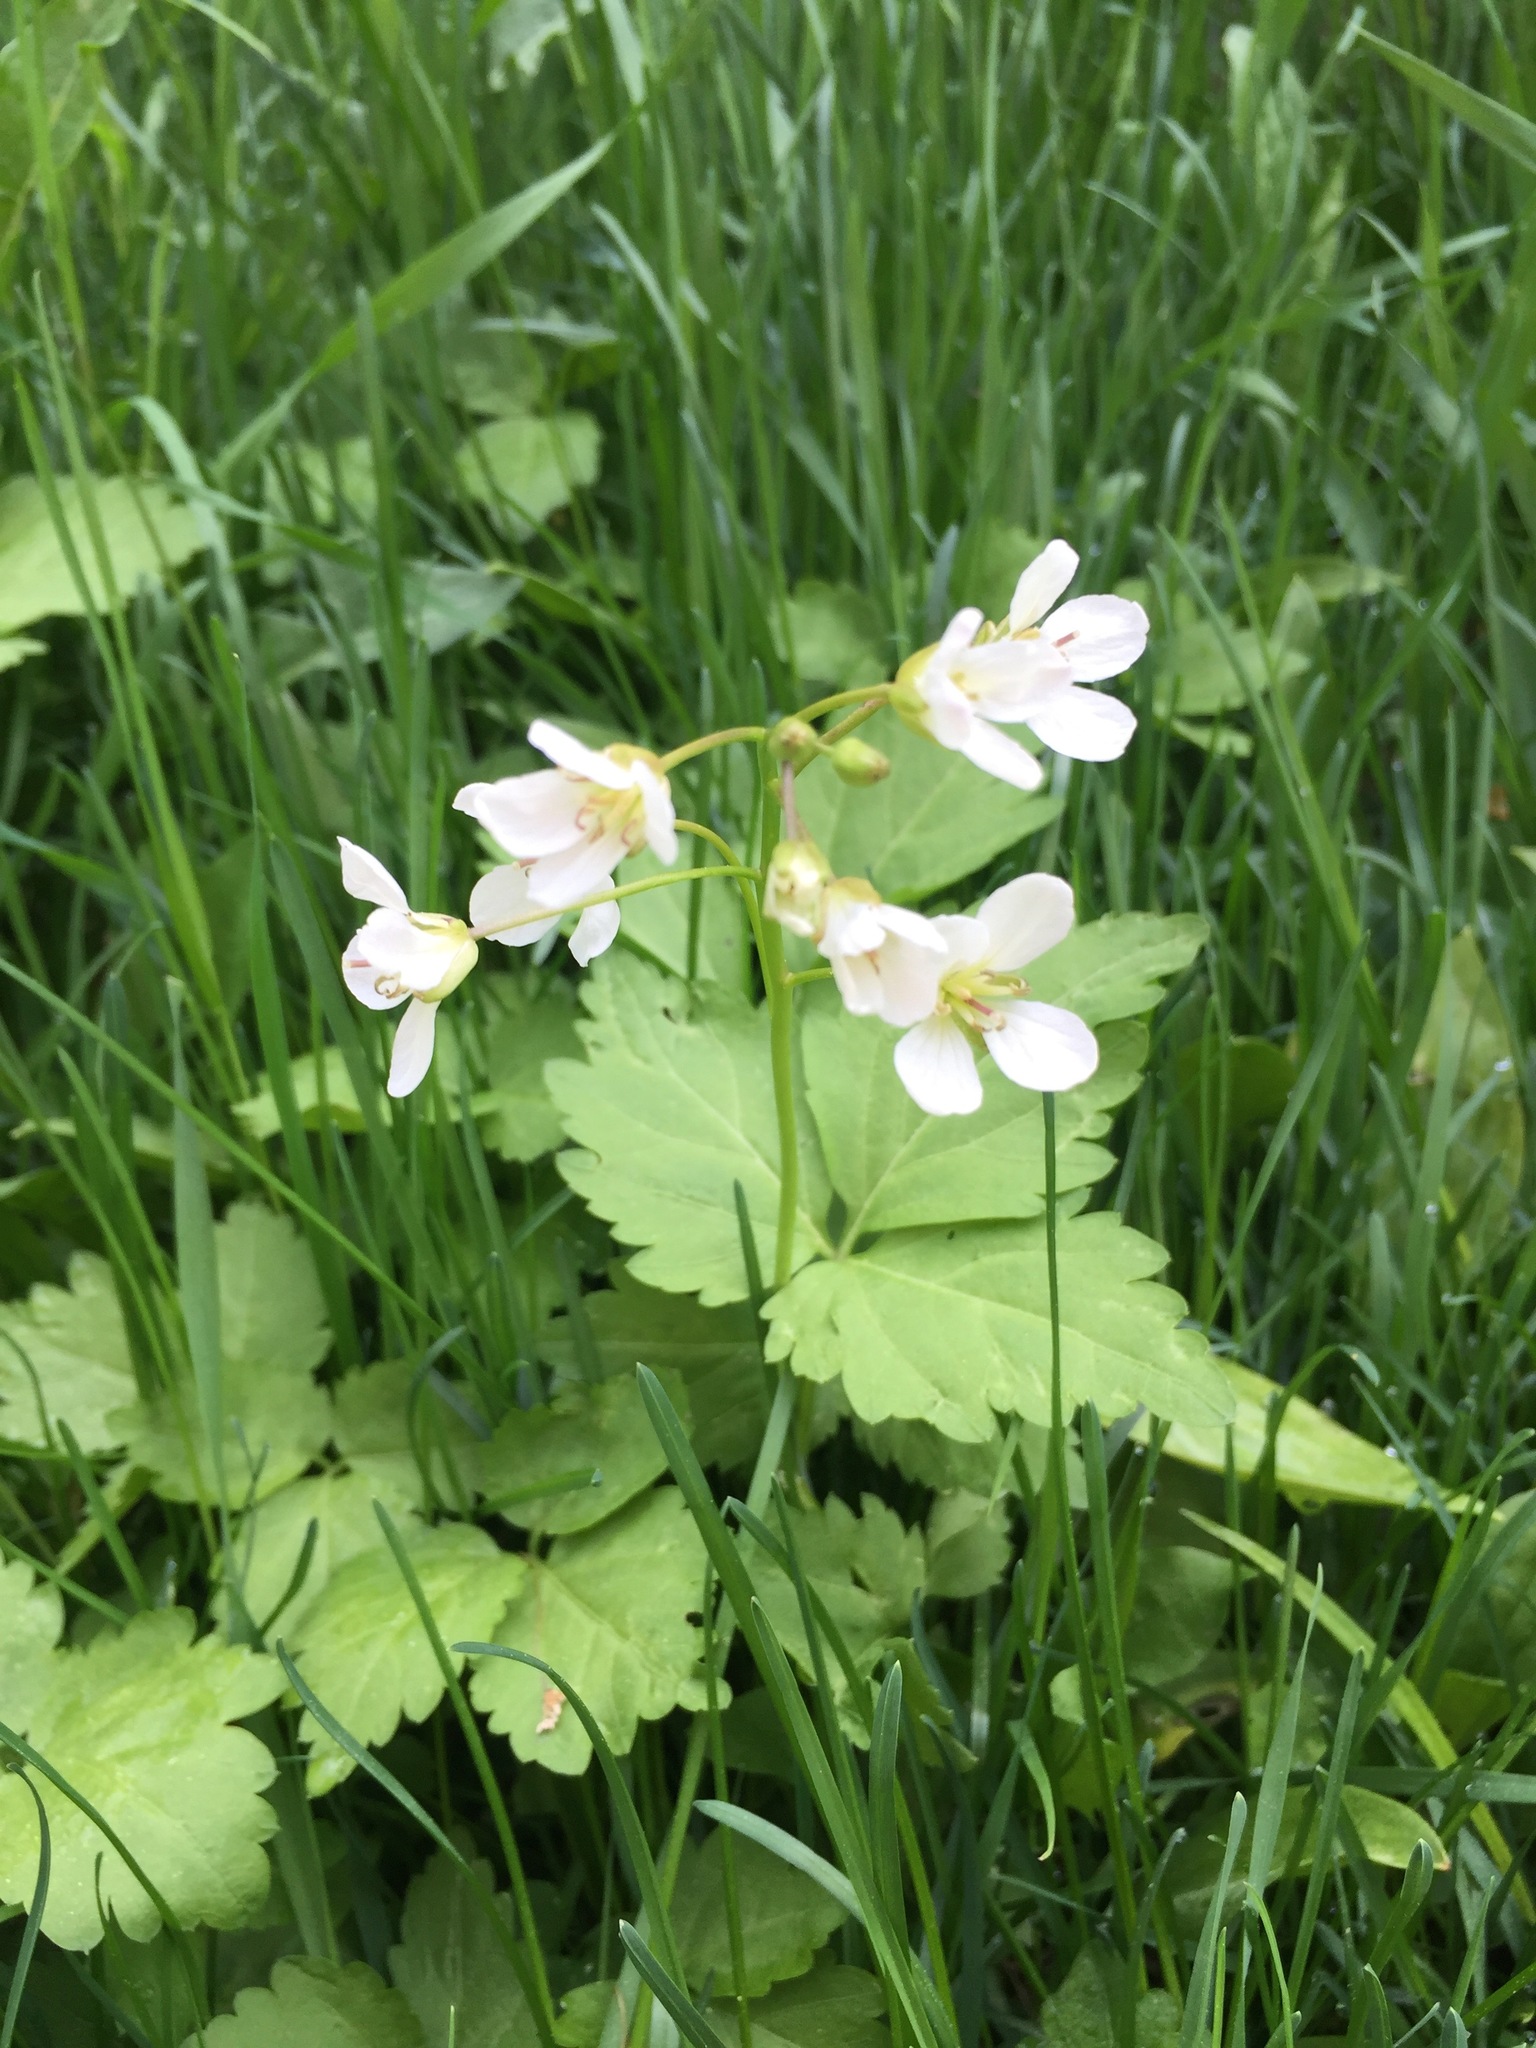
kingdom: Plantae
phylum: Tracheophyta
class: Magnoliopsida
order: Brassicales
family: Brassicaceae
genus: Cardamine
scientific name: Cardamine diphylla
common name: Broad-leaved toothwort
